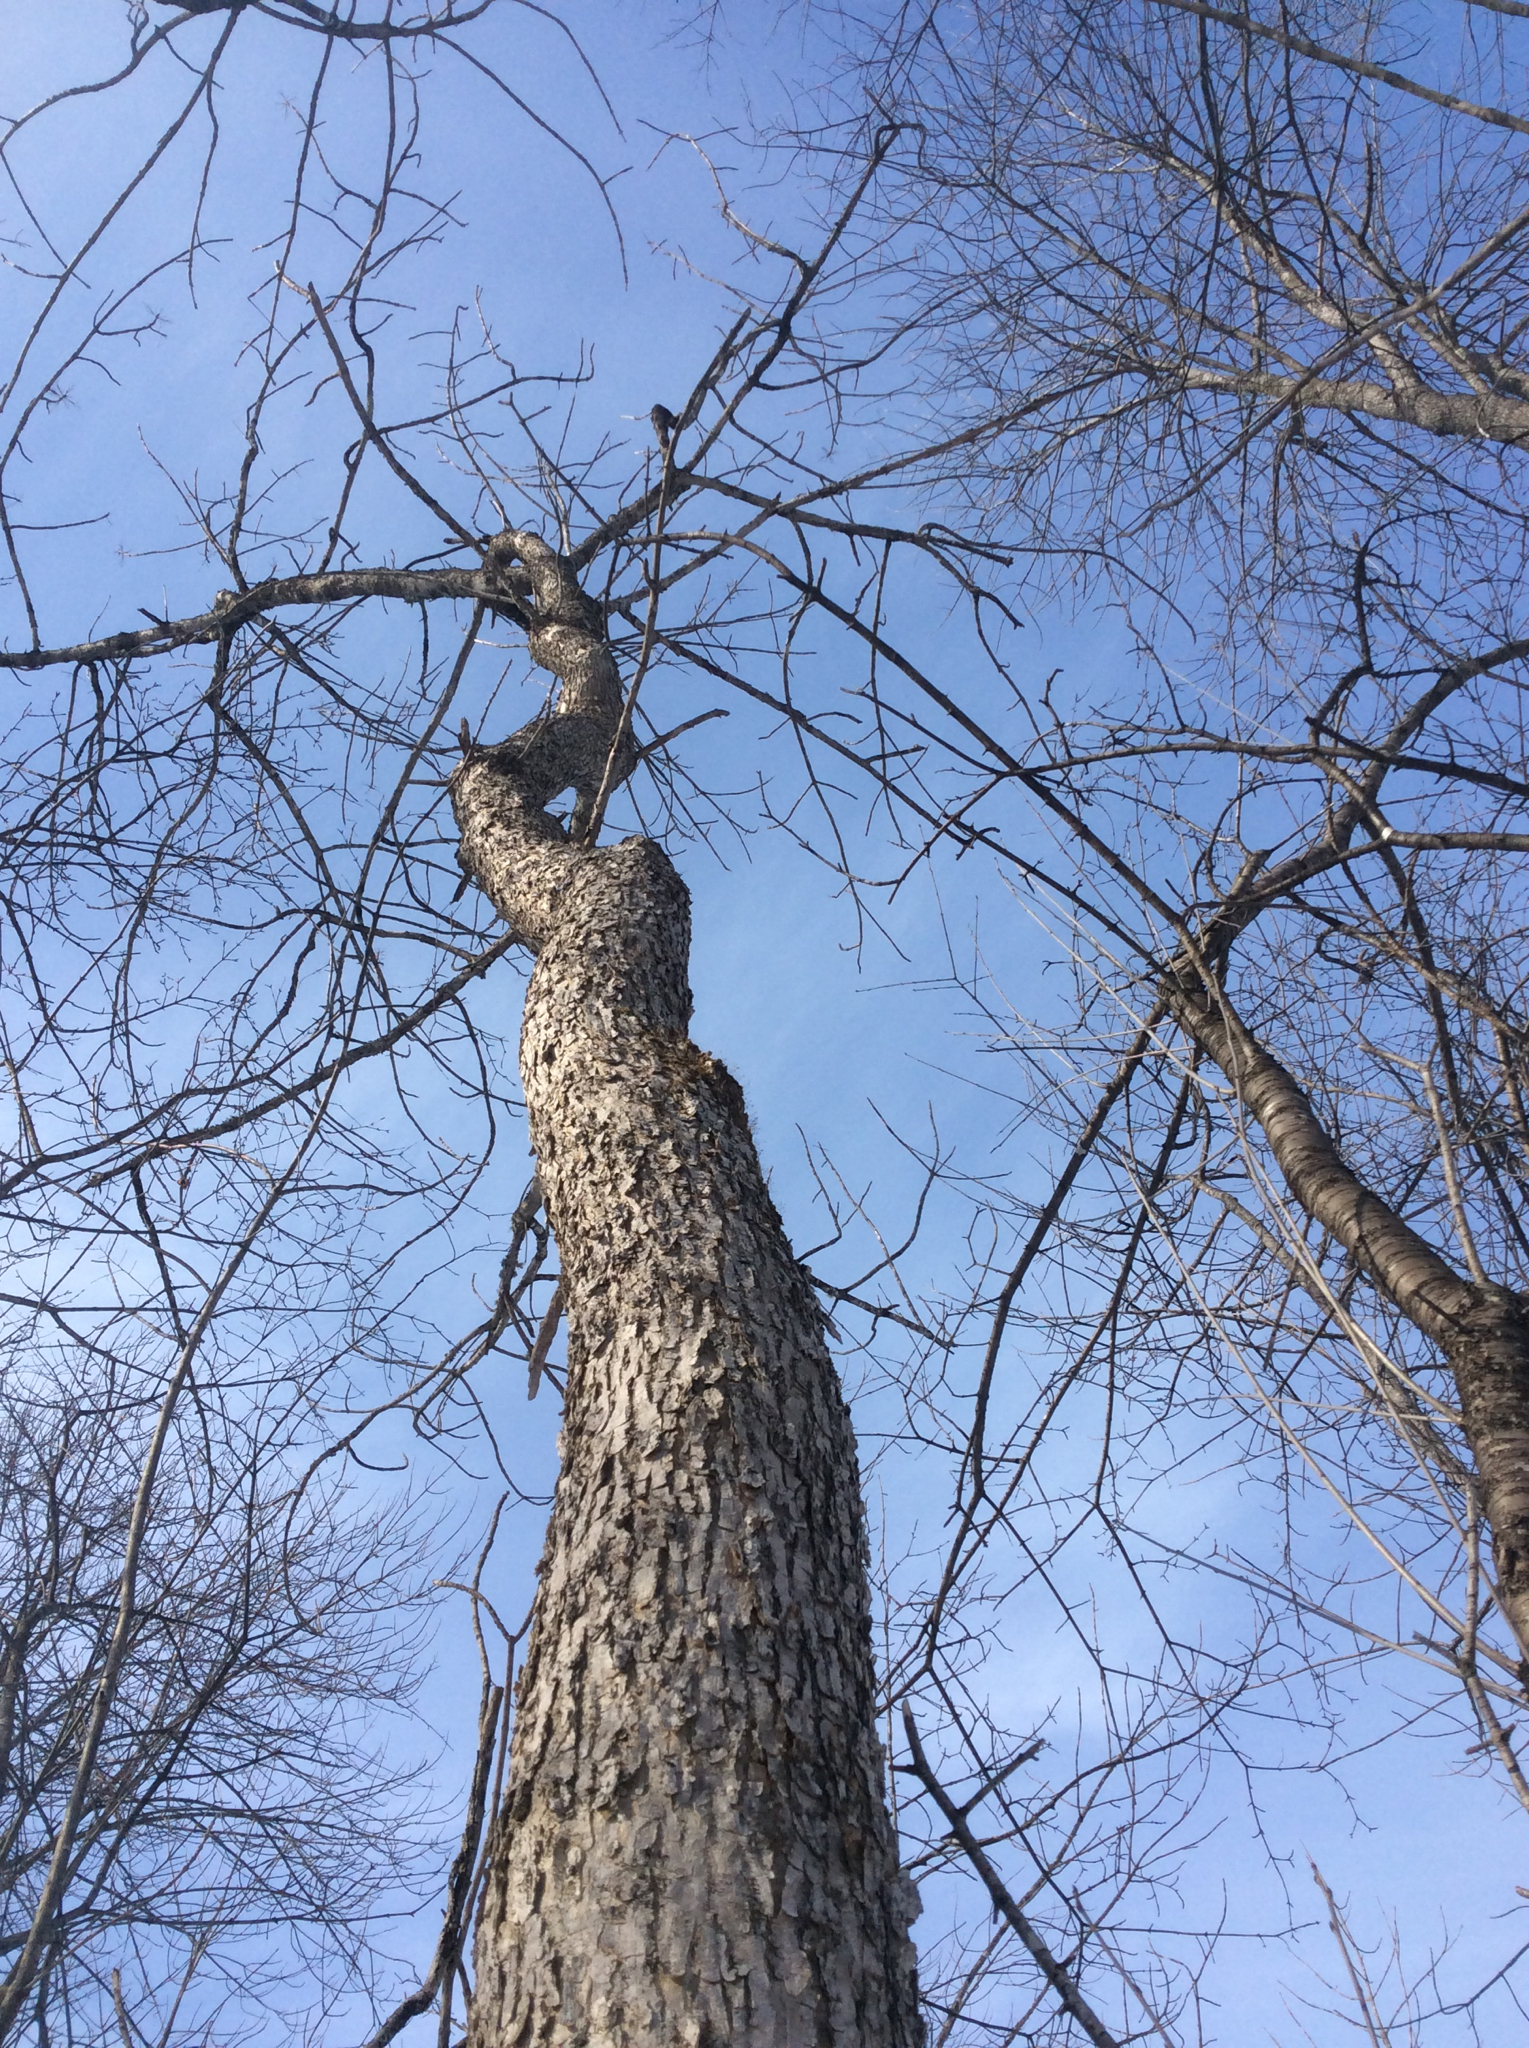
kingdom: Plantae
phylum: Tracheophyta
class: Magnoliopsida
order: Lamiales
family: Oleaceae
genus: Fraxinus
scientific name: Fraxinus nigra
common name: Black ash
